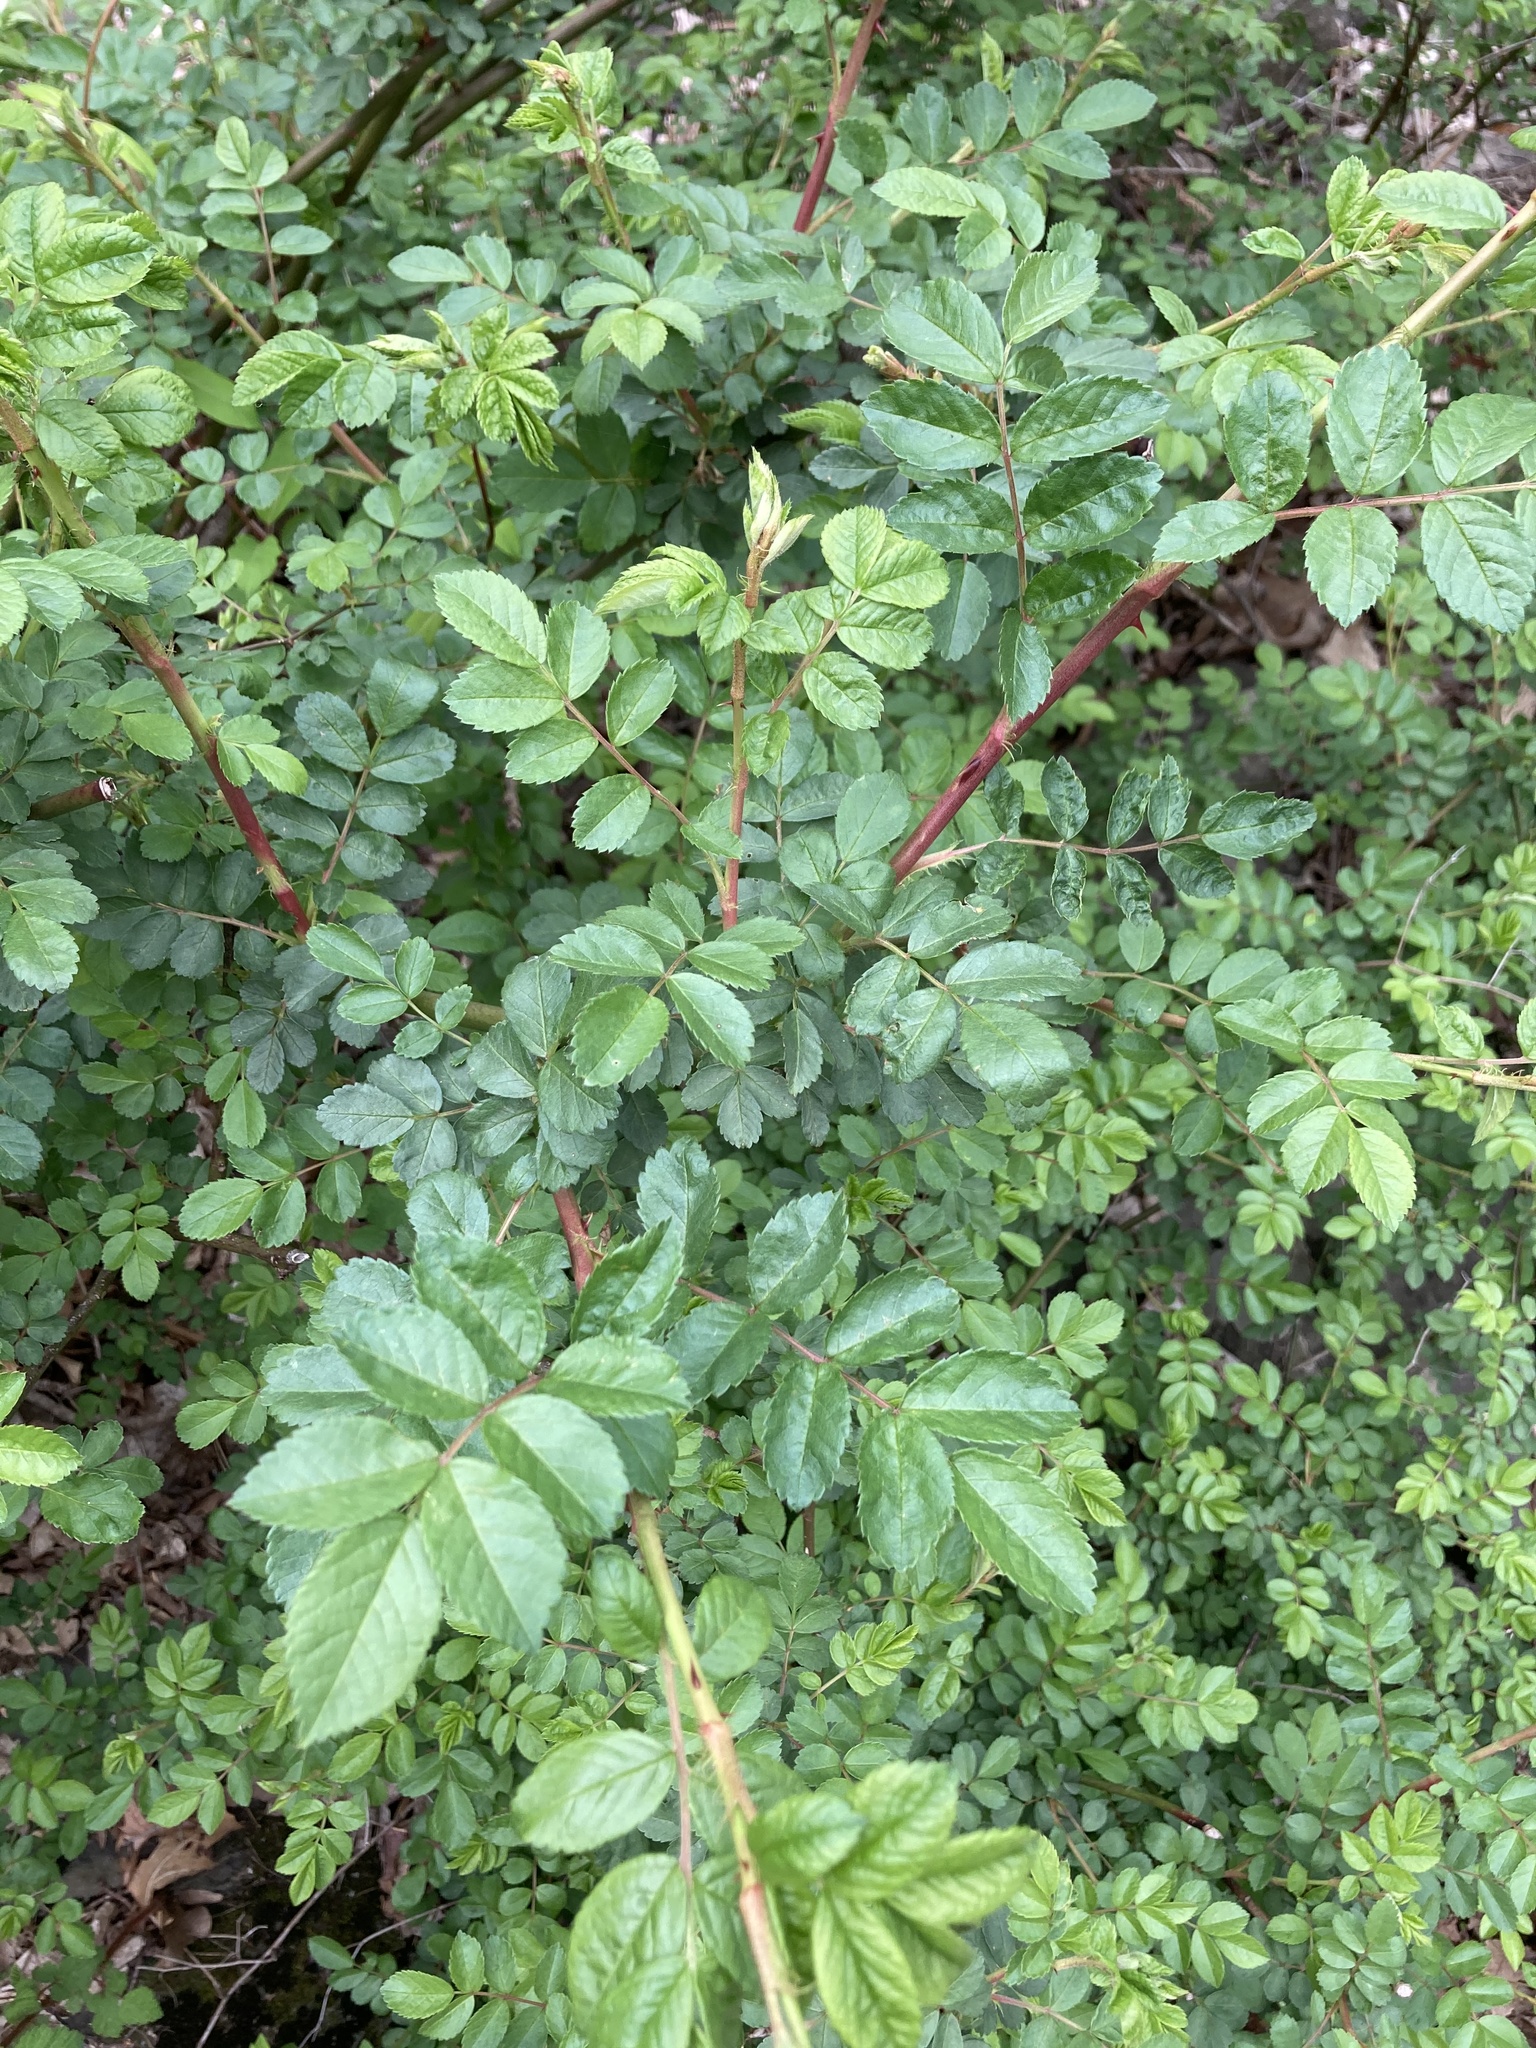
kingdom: Plantae
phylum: Tracheophyta
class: Magnoliopsida
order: Rosales
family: Rosaceae
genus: Rosa
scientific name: Rosa multiflora
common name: Multiflora rose
